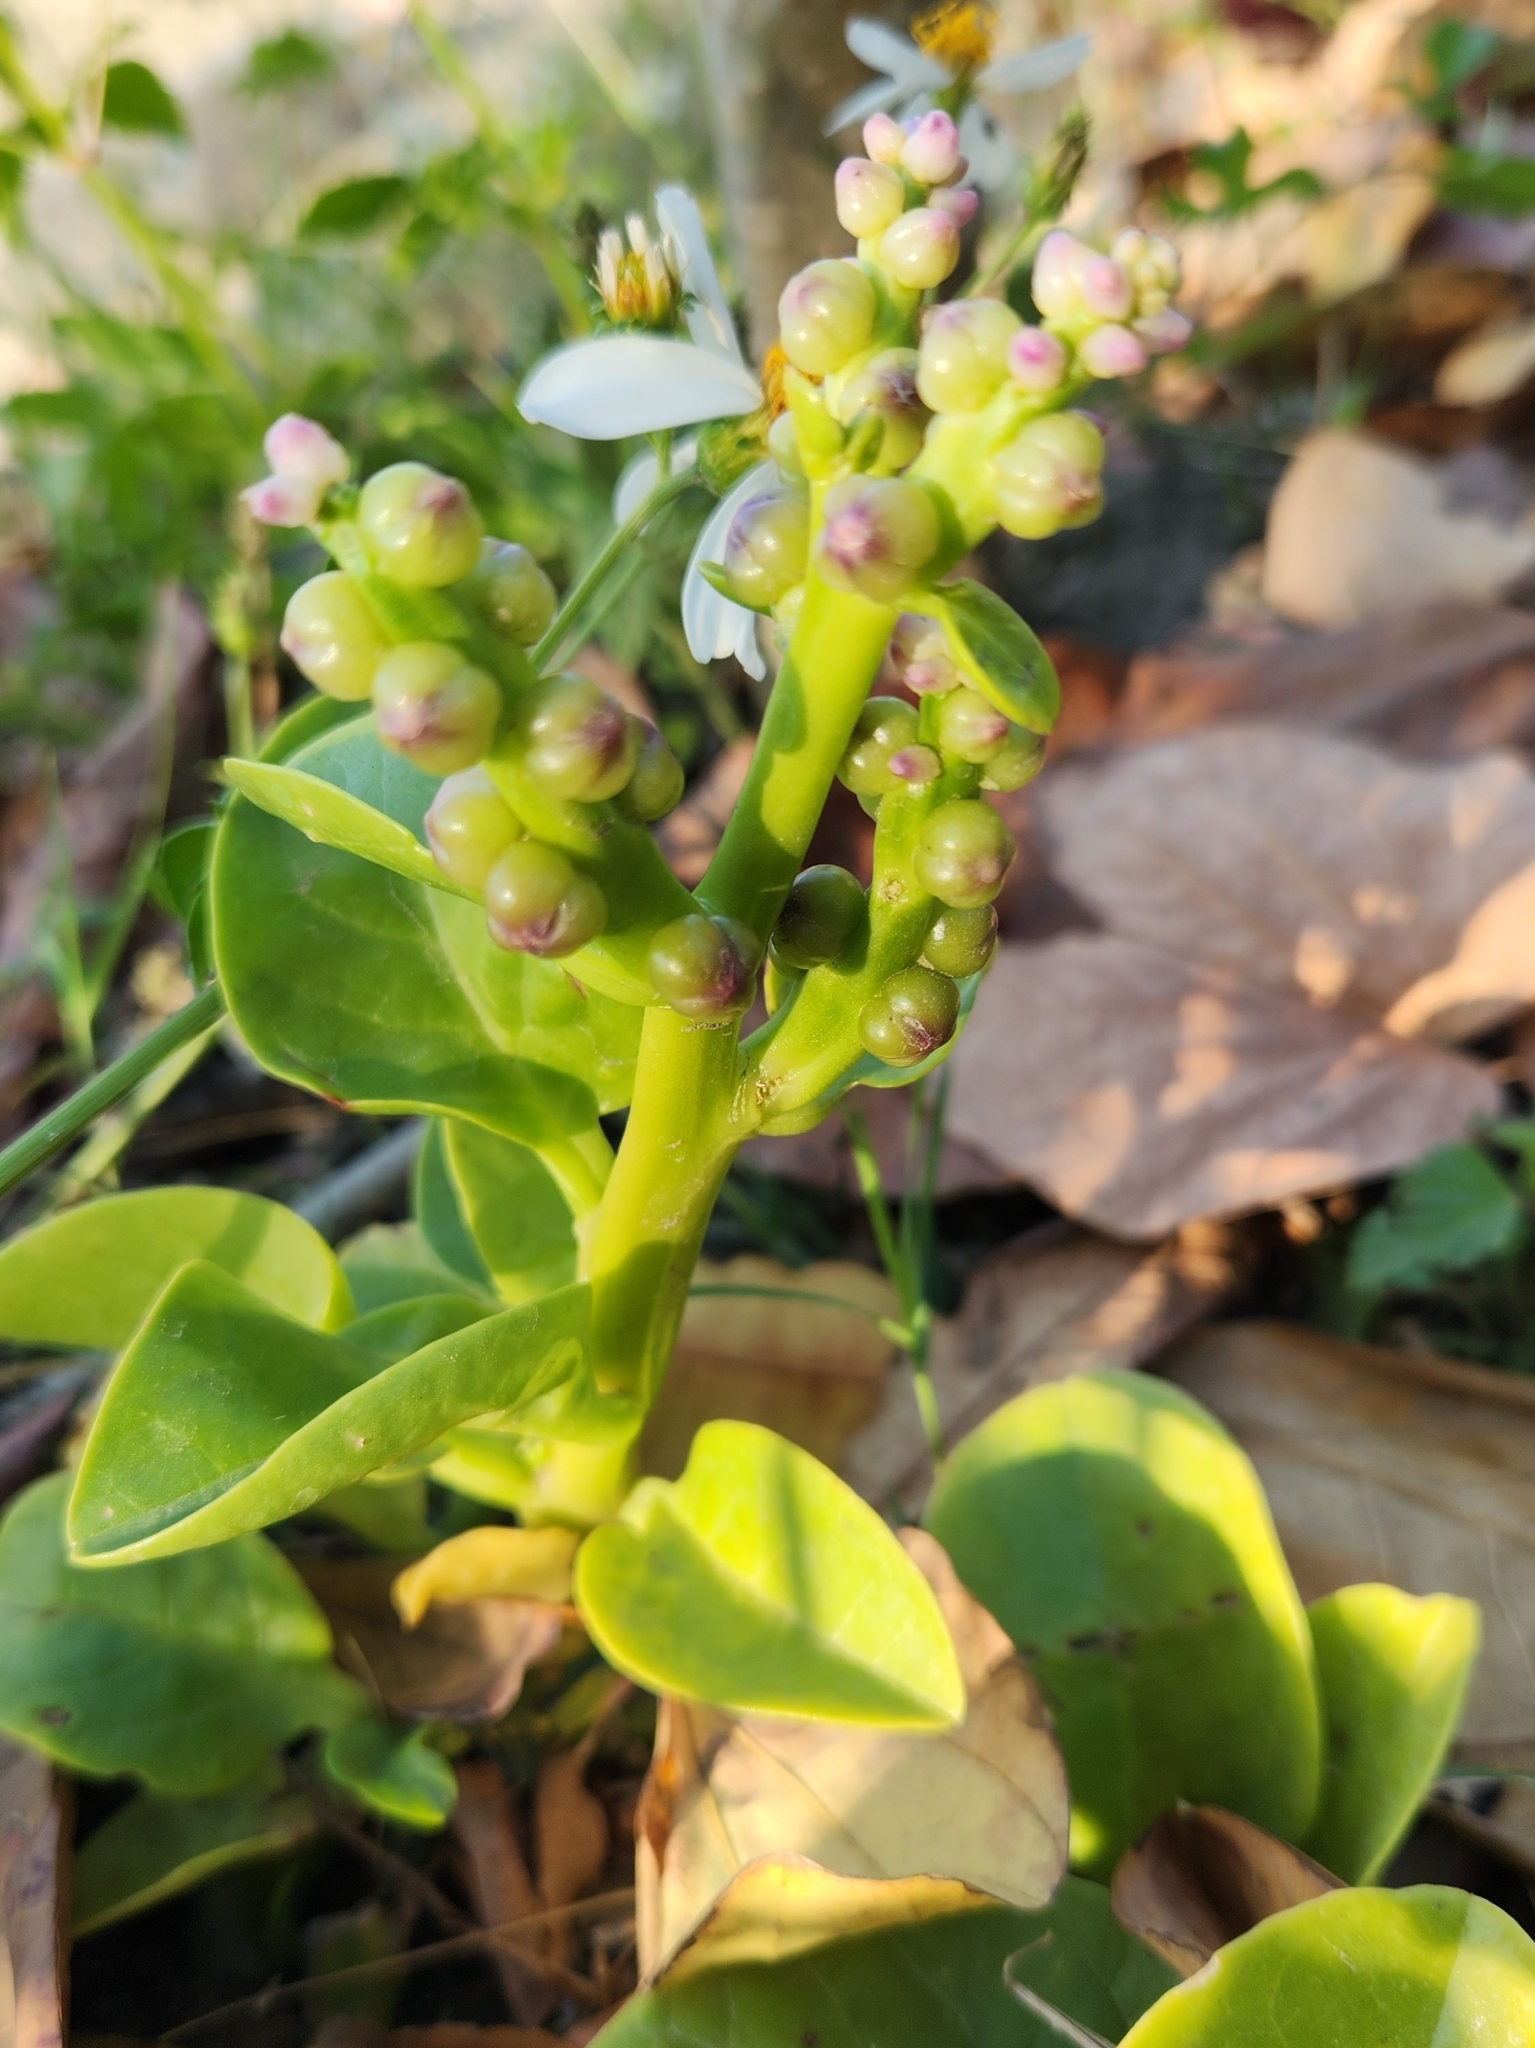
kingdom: Plantae
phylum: Tracheophyta
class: Magnoliopsida
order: Caryophyllales
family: Basellaceae
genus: Basella
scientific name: Basella alba
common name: Indian spinach
